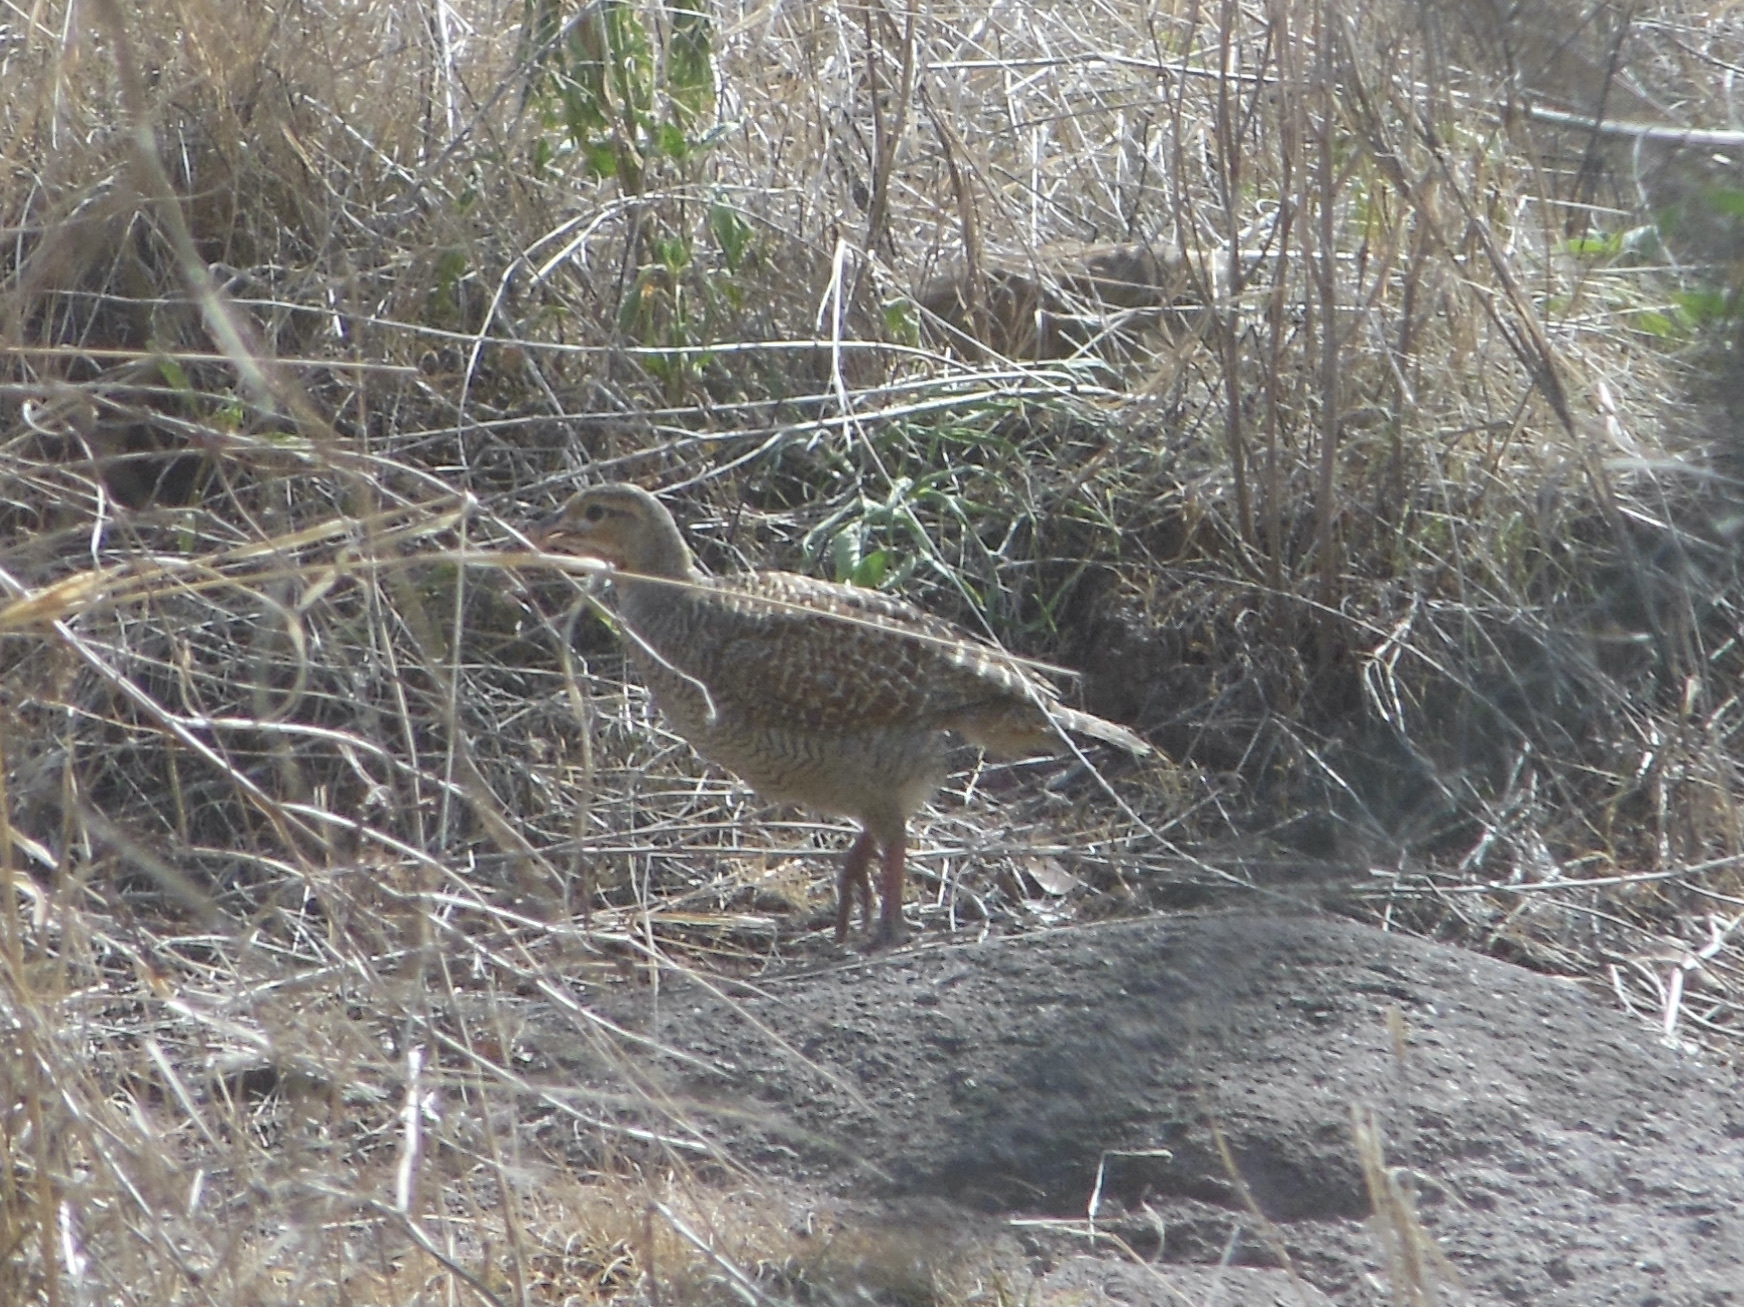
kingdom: Animalia
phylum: Chordata
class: Aves
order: Galliformes
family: Phasianidae
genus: Ortygornis
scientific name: Ortygornis pondicerianus
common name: Grey francolin
